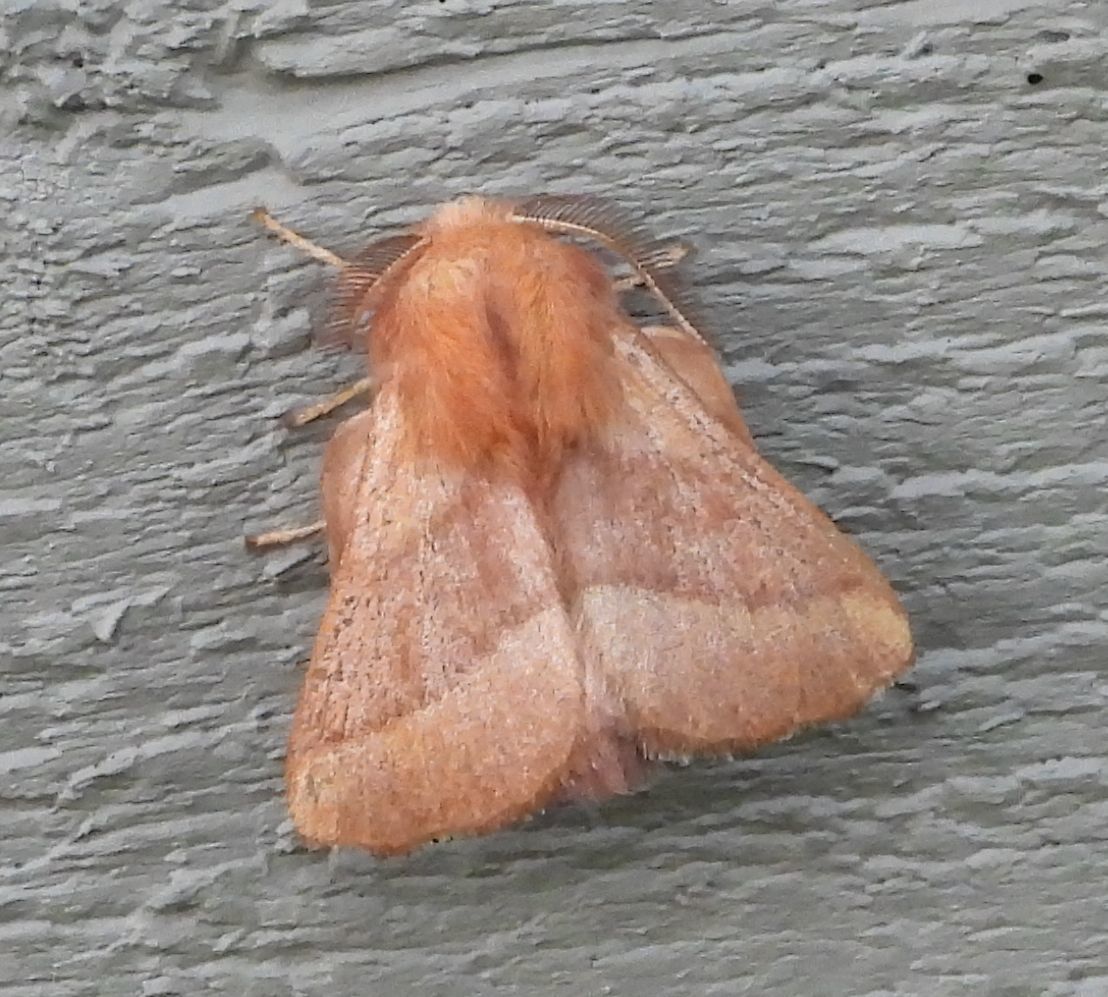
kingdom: Animalia
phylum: Arthropoda
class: Insecta
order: Lepidoptera
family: Lasiocampidae
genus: Malacosoma
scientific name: Malacosoma disstria
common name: Forest tent caterpillar
